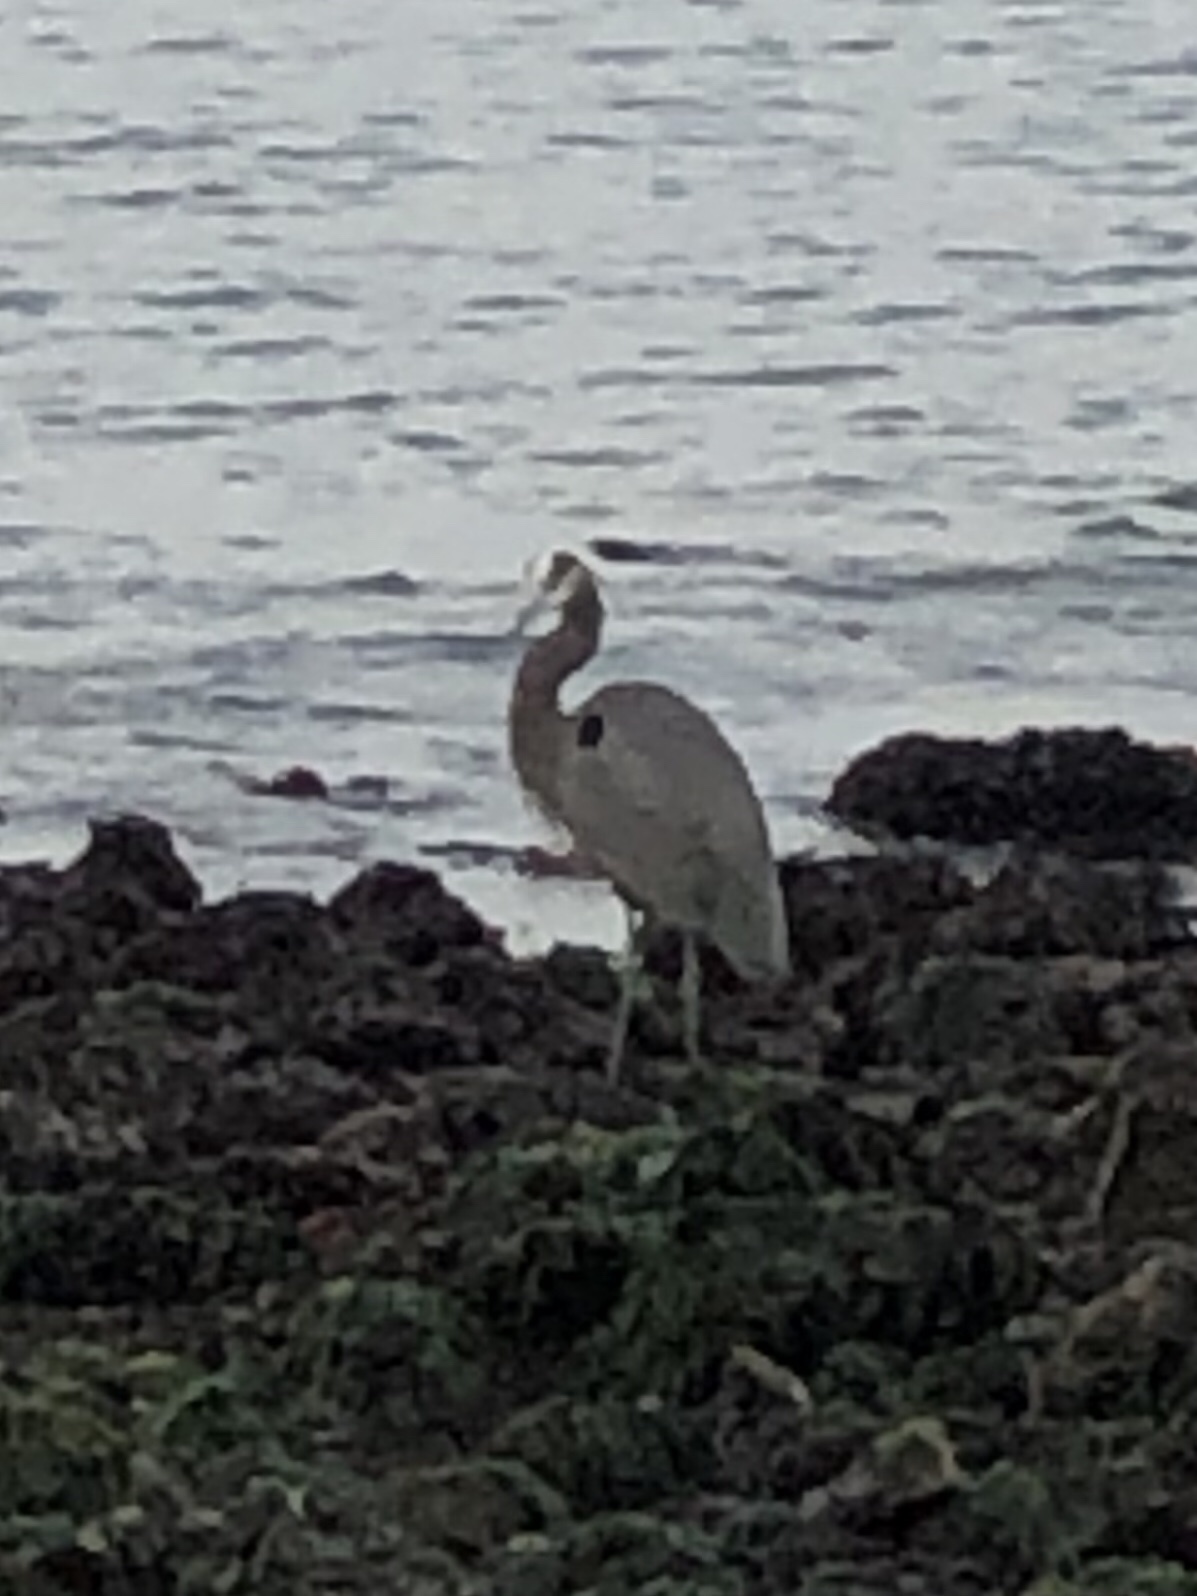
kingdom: Animalia
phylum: Chordata
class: Aves
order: Pelecaniformes
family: Ardeidae
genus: Ardea
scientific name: Ardea herodias
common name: Great blue heron
